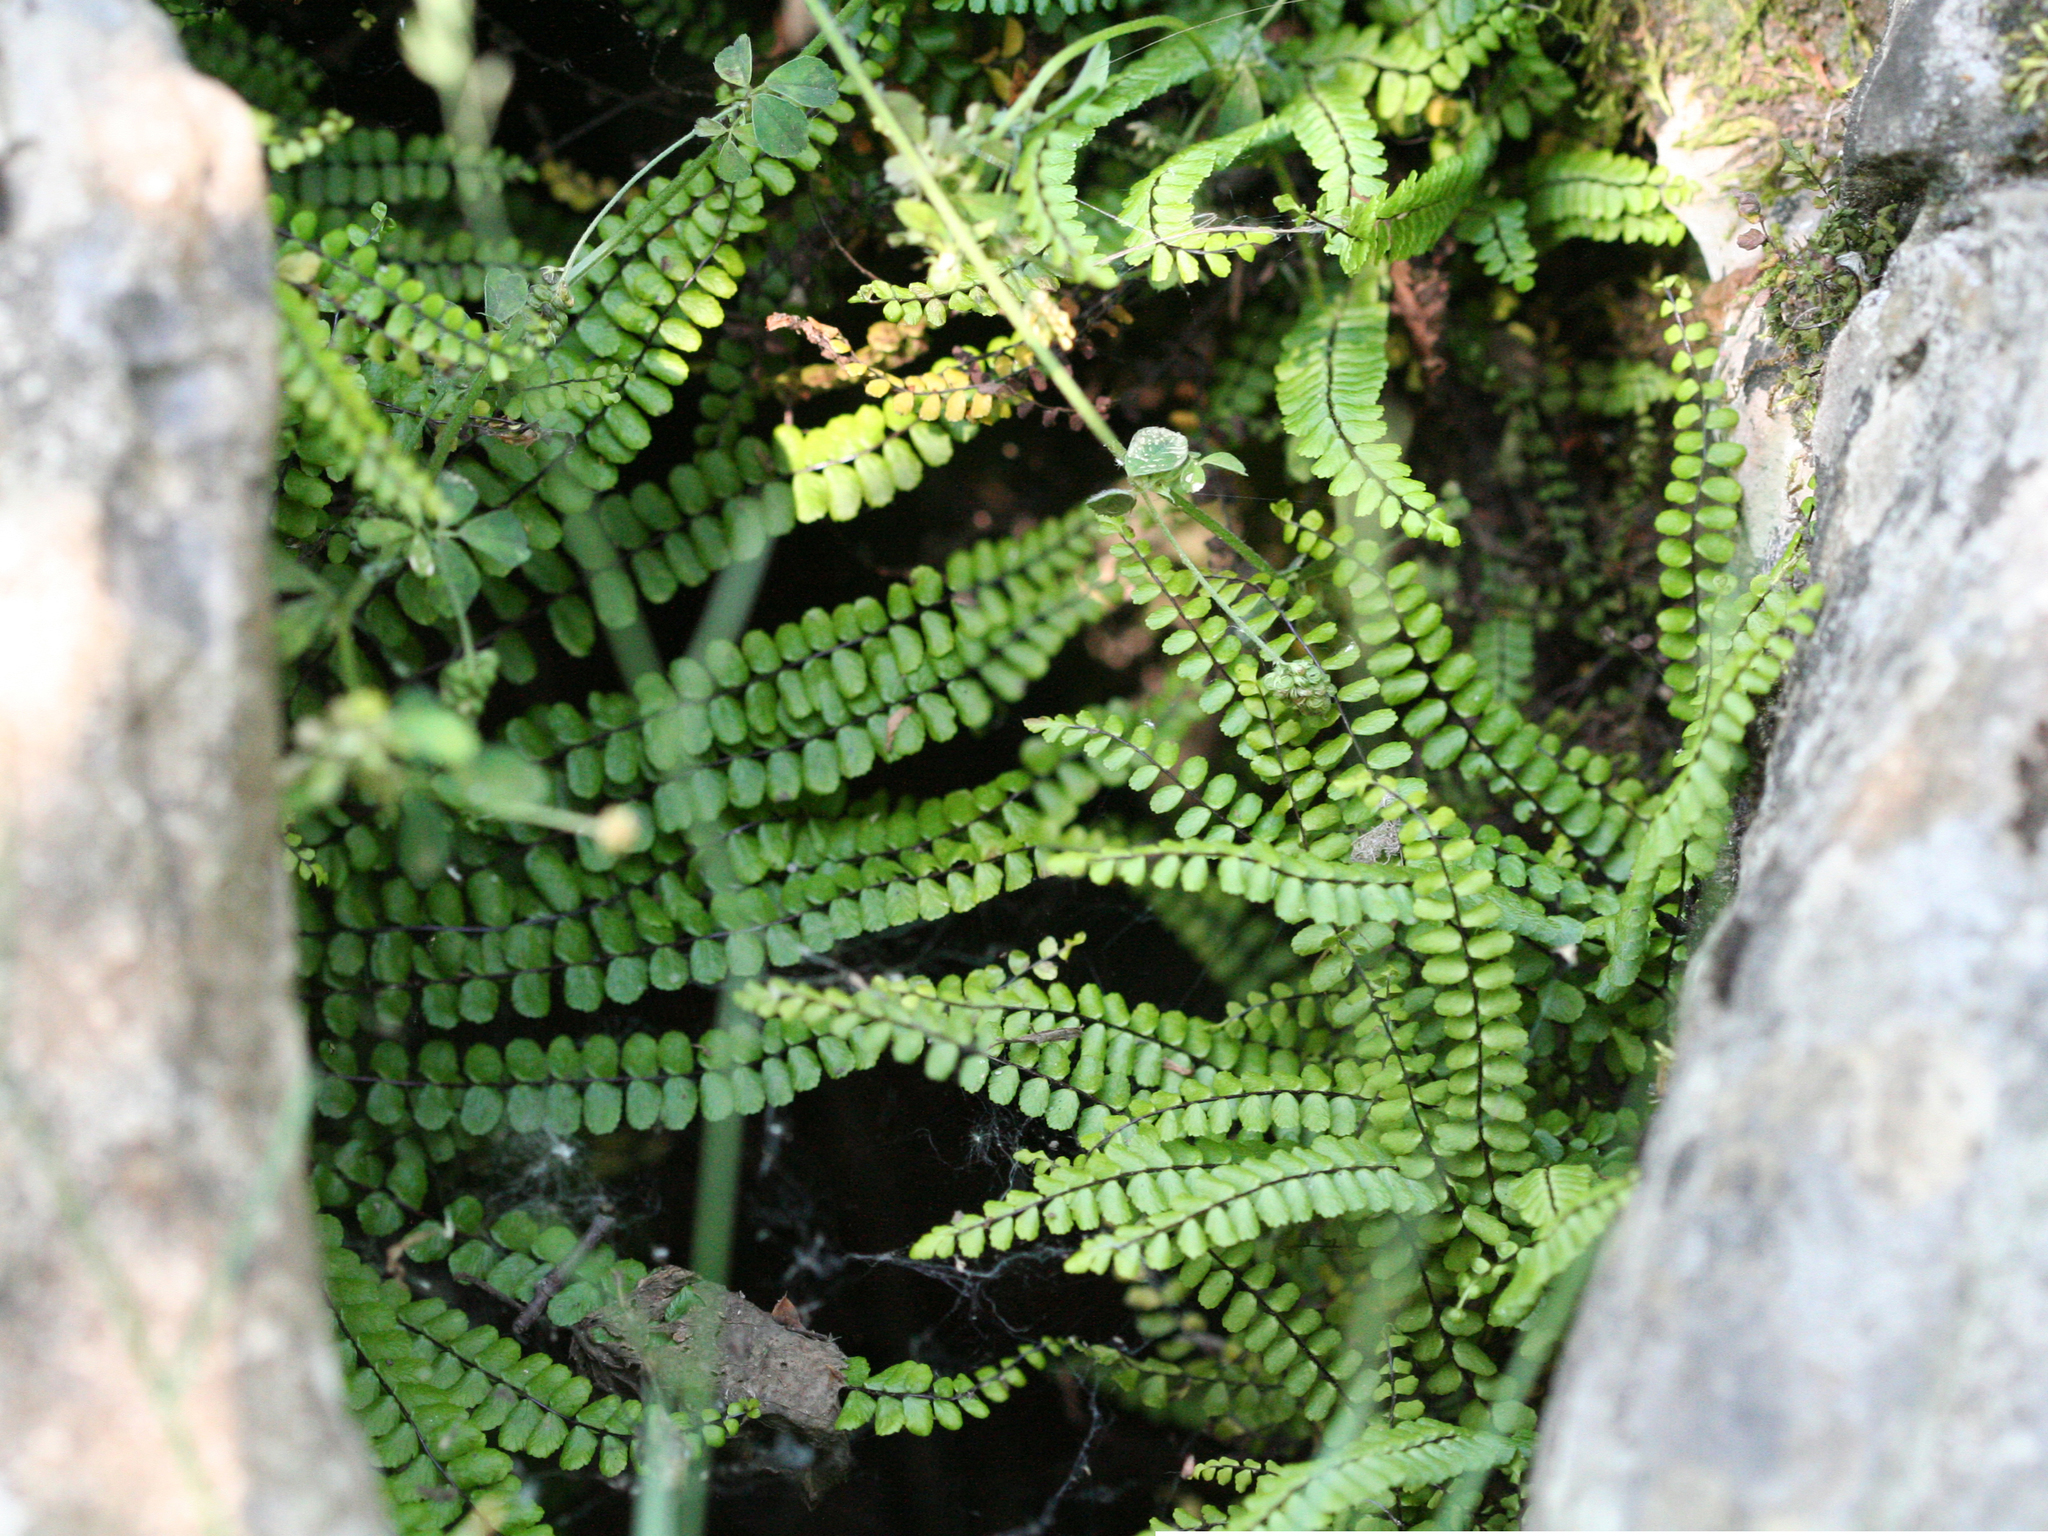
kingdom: Plantae
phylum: Tracheophyta
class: Polypodiopsida
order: Polypodiales
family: Aspleniaceae
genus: Asplenium
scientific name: Asplenium trichomanes
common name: Maidenhair spleenwort
